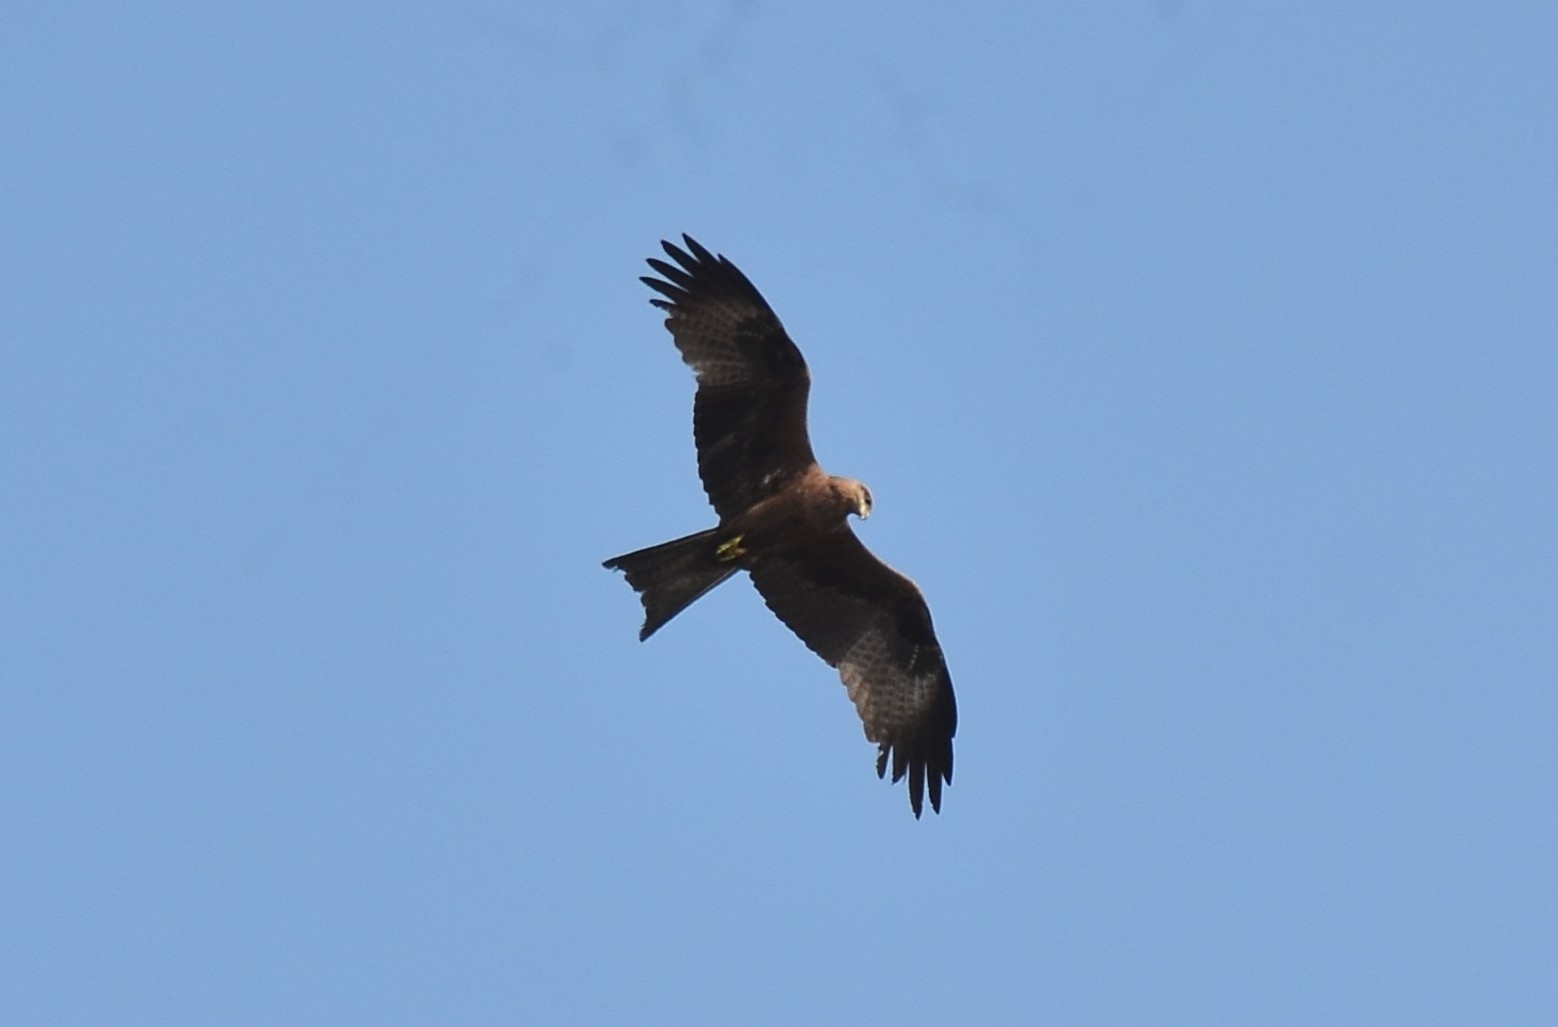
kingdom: Animalia
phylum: Chordata
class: Aves
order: Accipitriformes
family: Accipitridae
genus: Milvus
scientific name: Milvus migrans
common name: Black kite
